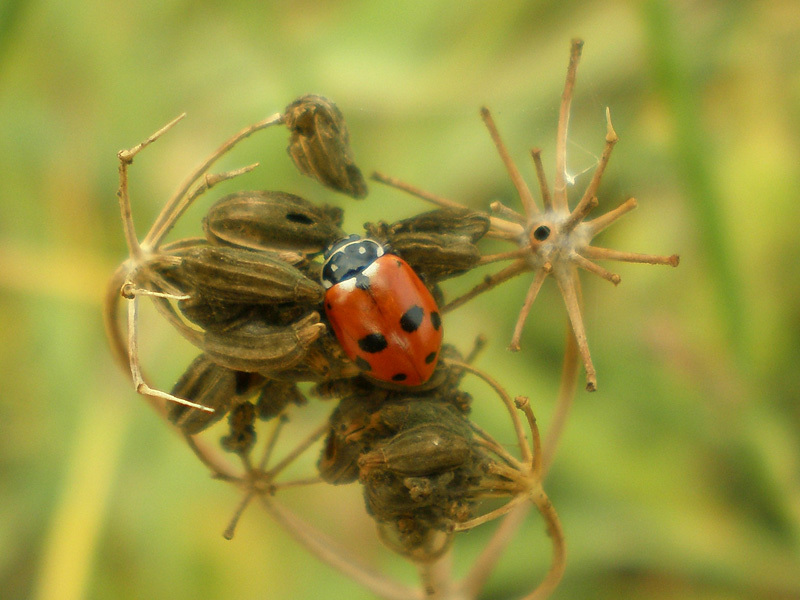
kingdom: Animalia
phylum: Arthropoda
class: Insecta
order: Coleoptera
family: Coccinellidae
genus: Hippodamia
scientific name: Hippodamia variegata
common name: Ladybird beetle
